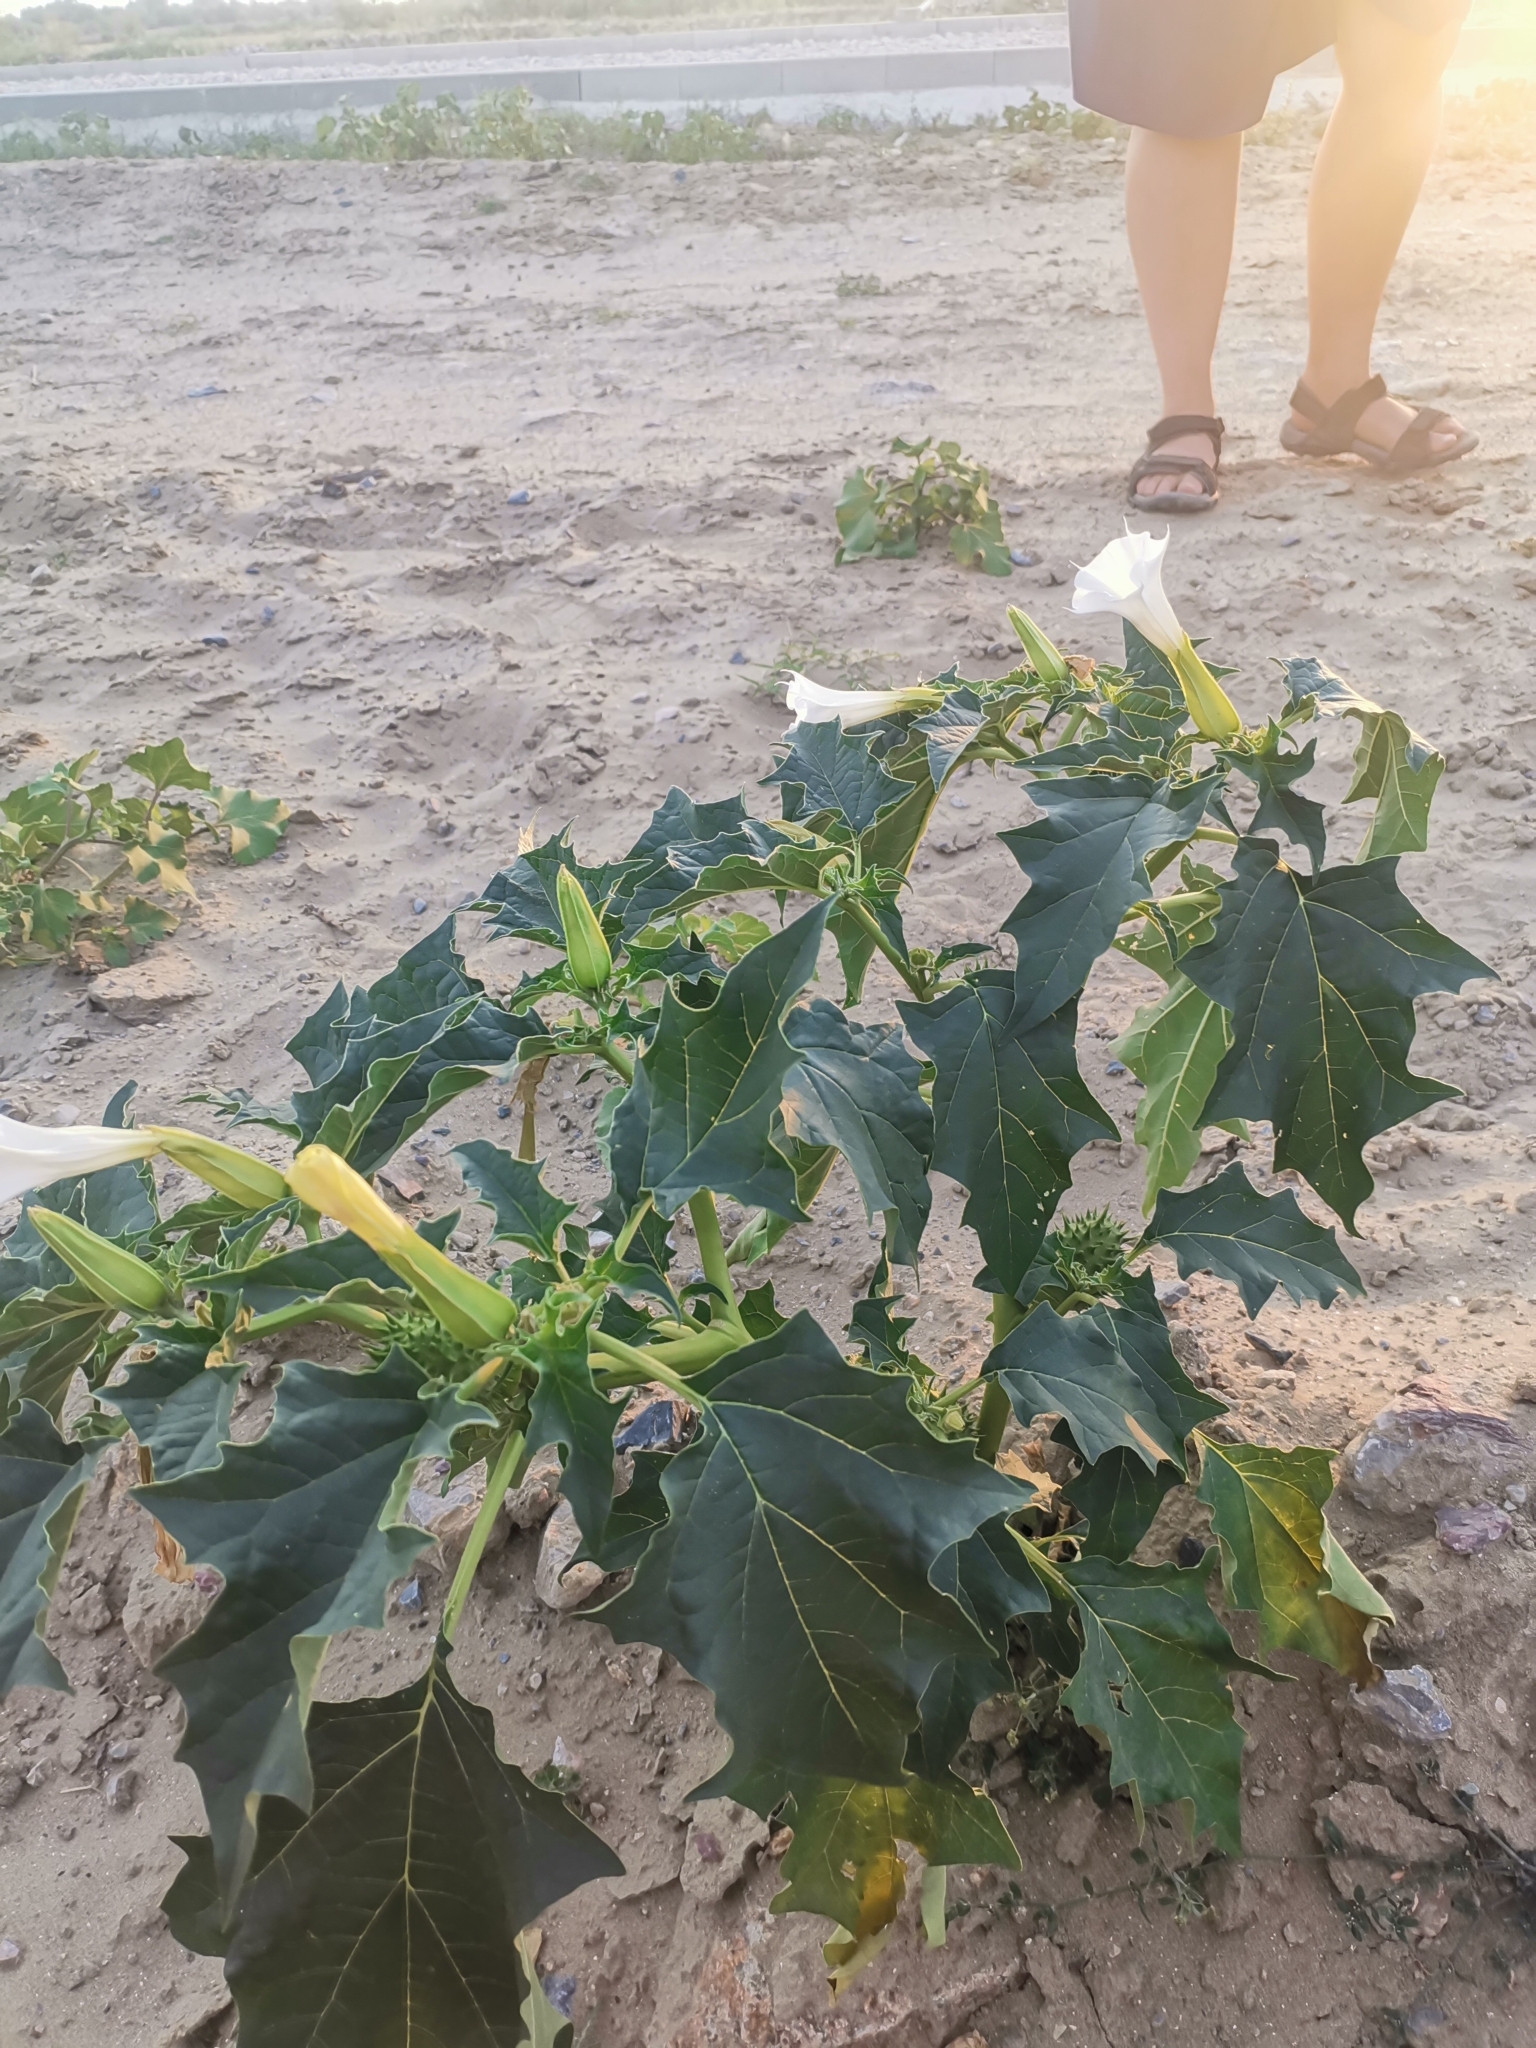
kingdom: Plantae
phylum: Tracheophyta
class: Magnoliopsida
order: Solanales
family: Solanaceae
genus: Datura
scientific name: Datura stramonium
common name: Thorn-apple
